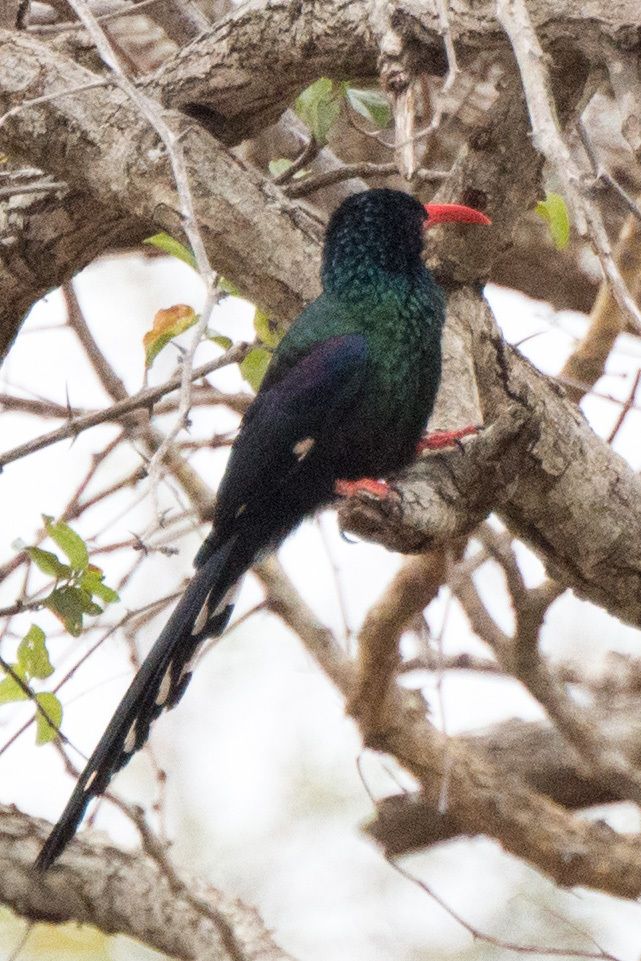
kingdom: Animalia
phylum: Chordata
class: Aves
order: Bucerotiformes
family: Phoeniculidae
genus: Phoeniculus
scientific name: Phoeniculus purpureus
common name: Green woodhoopoe
